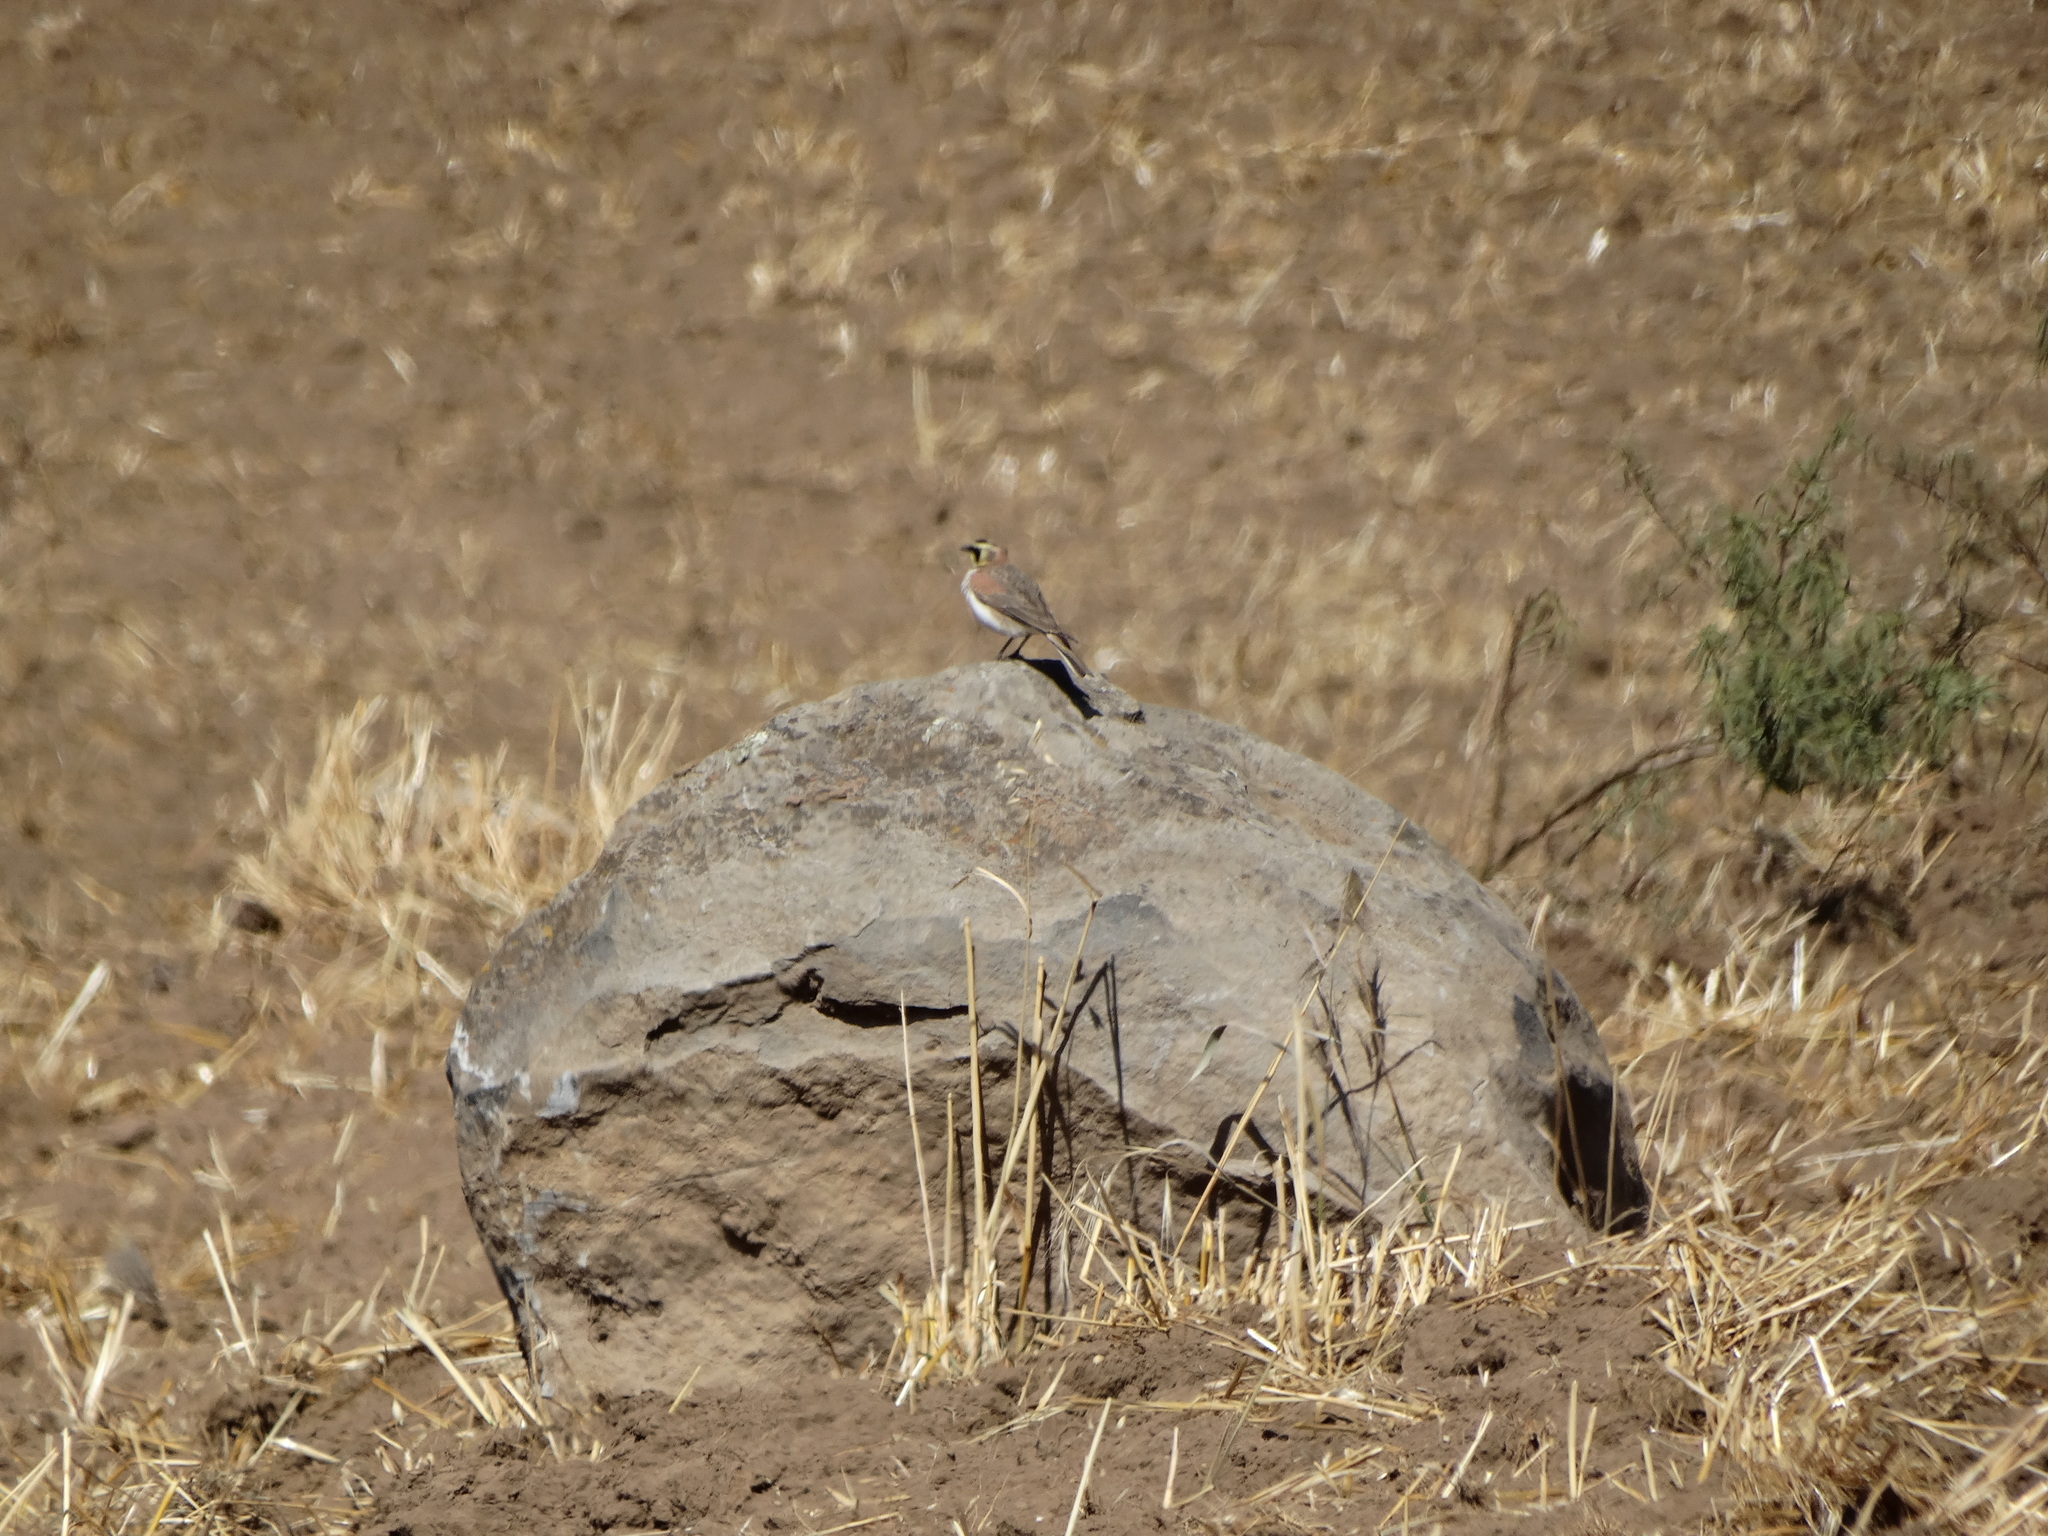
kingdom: Animalia
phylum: Chordata
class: Aves
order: Passeriformes
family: Alaudidae
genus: Eremophila
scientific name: Eremophila alpestris
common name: Horned lark
